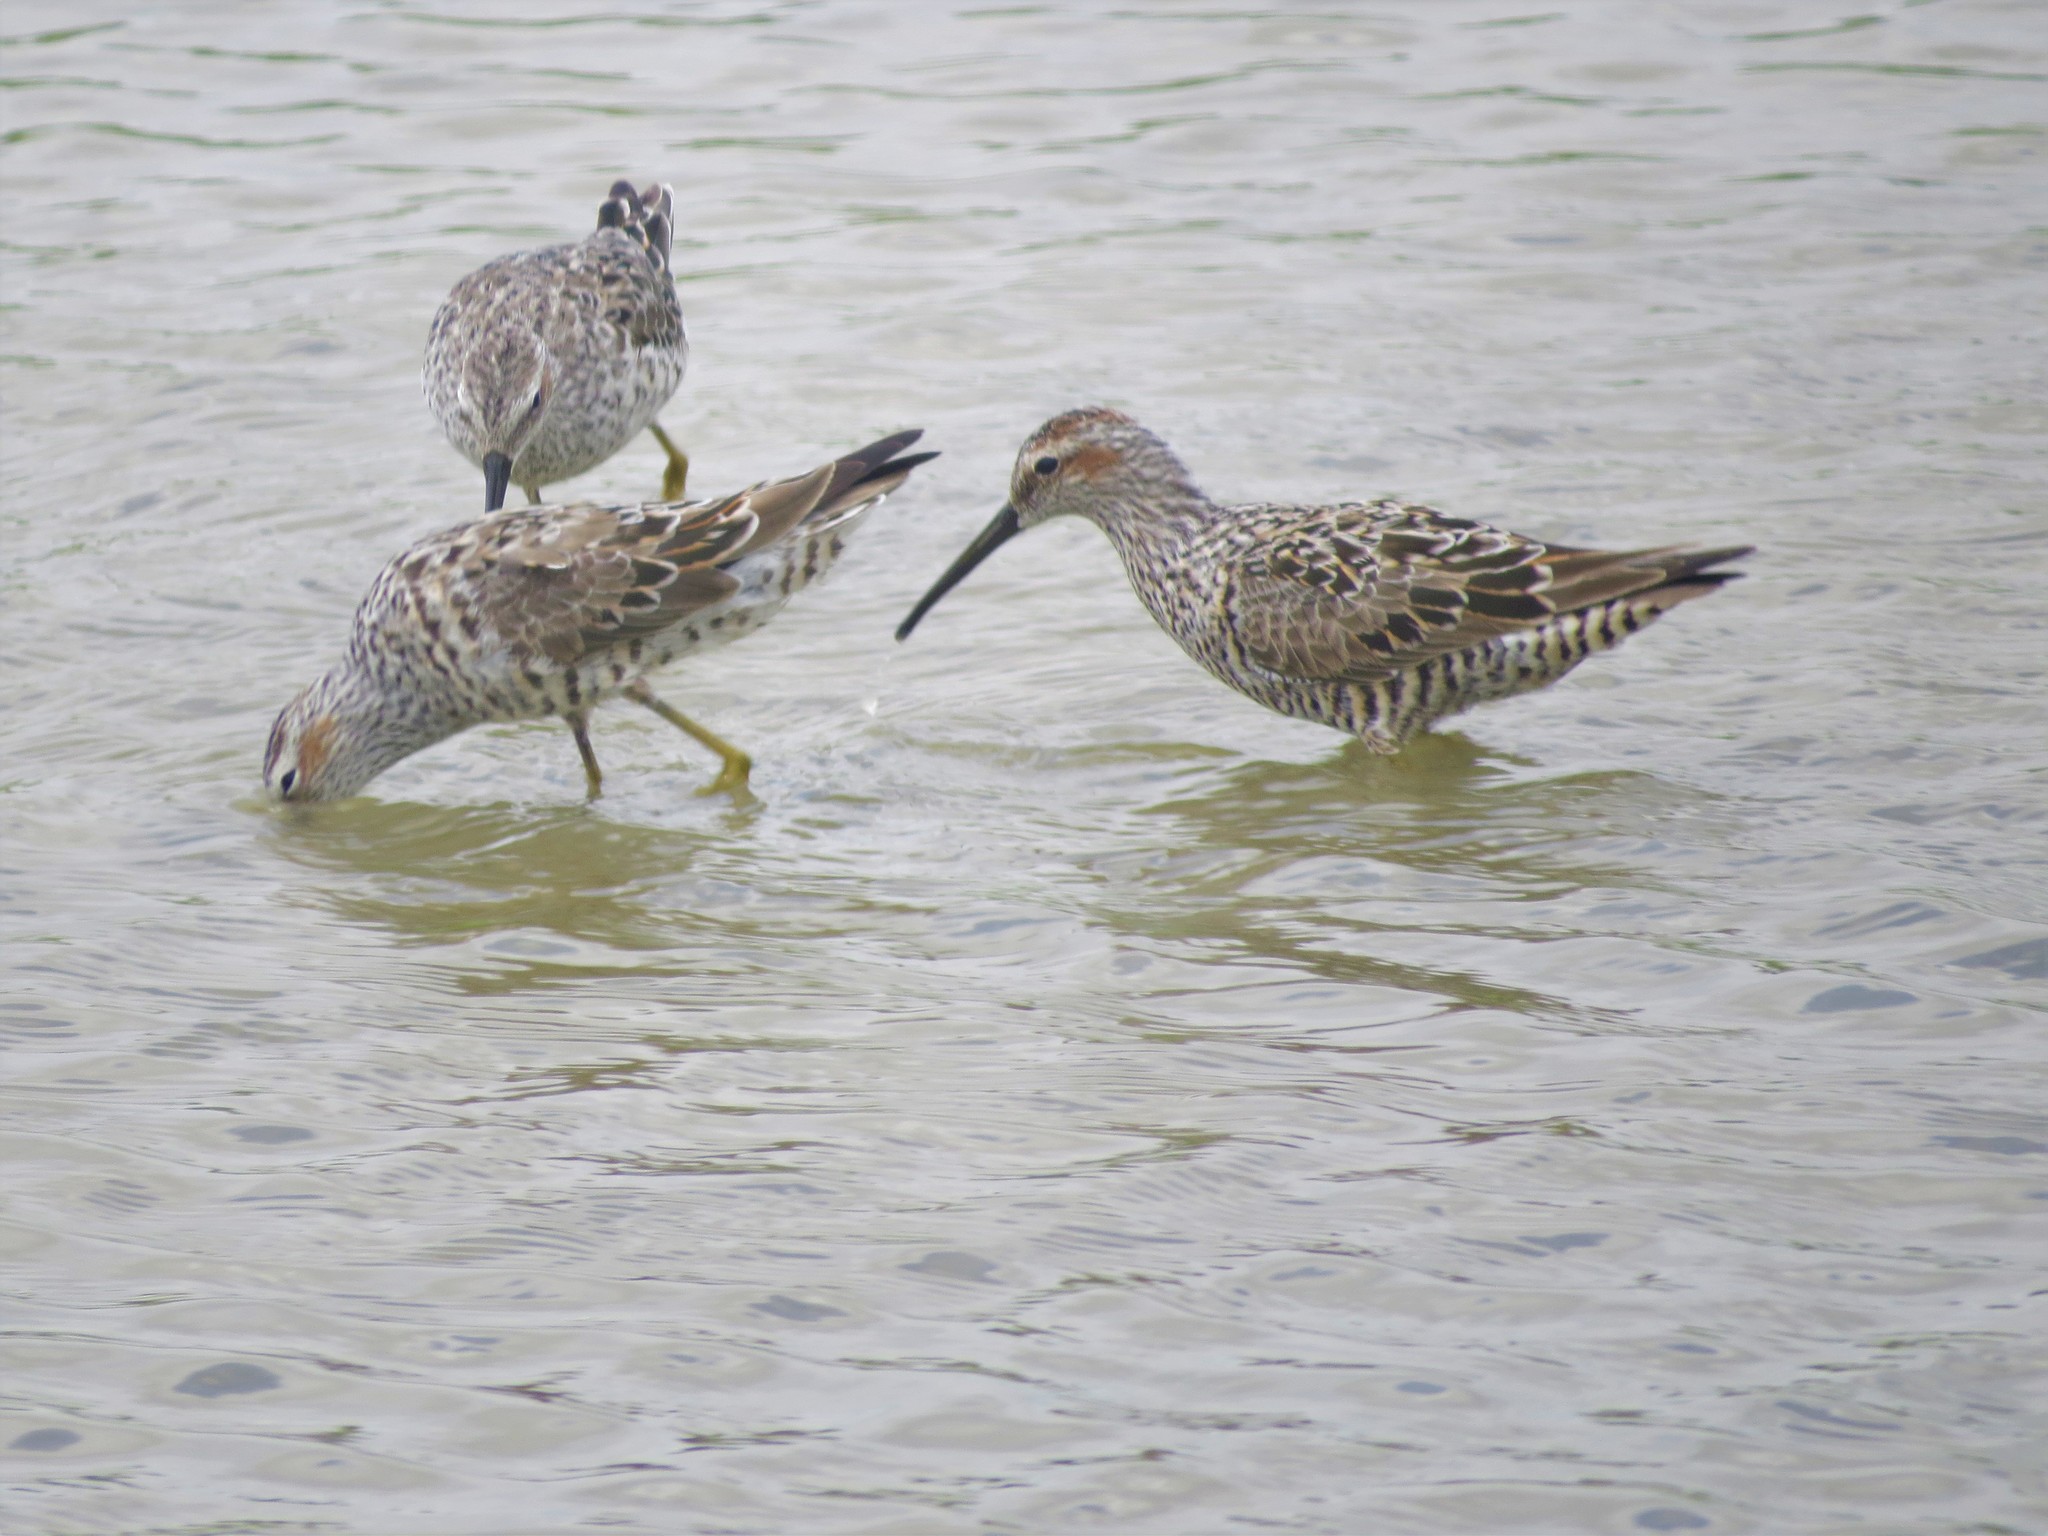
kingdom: Animalia
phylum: Chordata
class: Aves
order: Charadriiformes
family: Scolopacidae
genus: Calidris
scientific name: Calidris himantopus
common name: Stilt sandpiper
